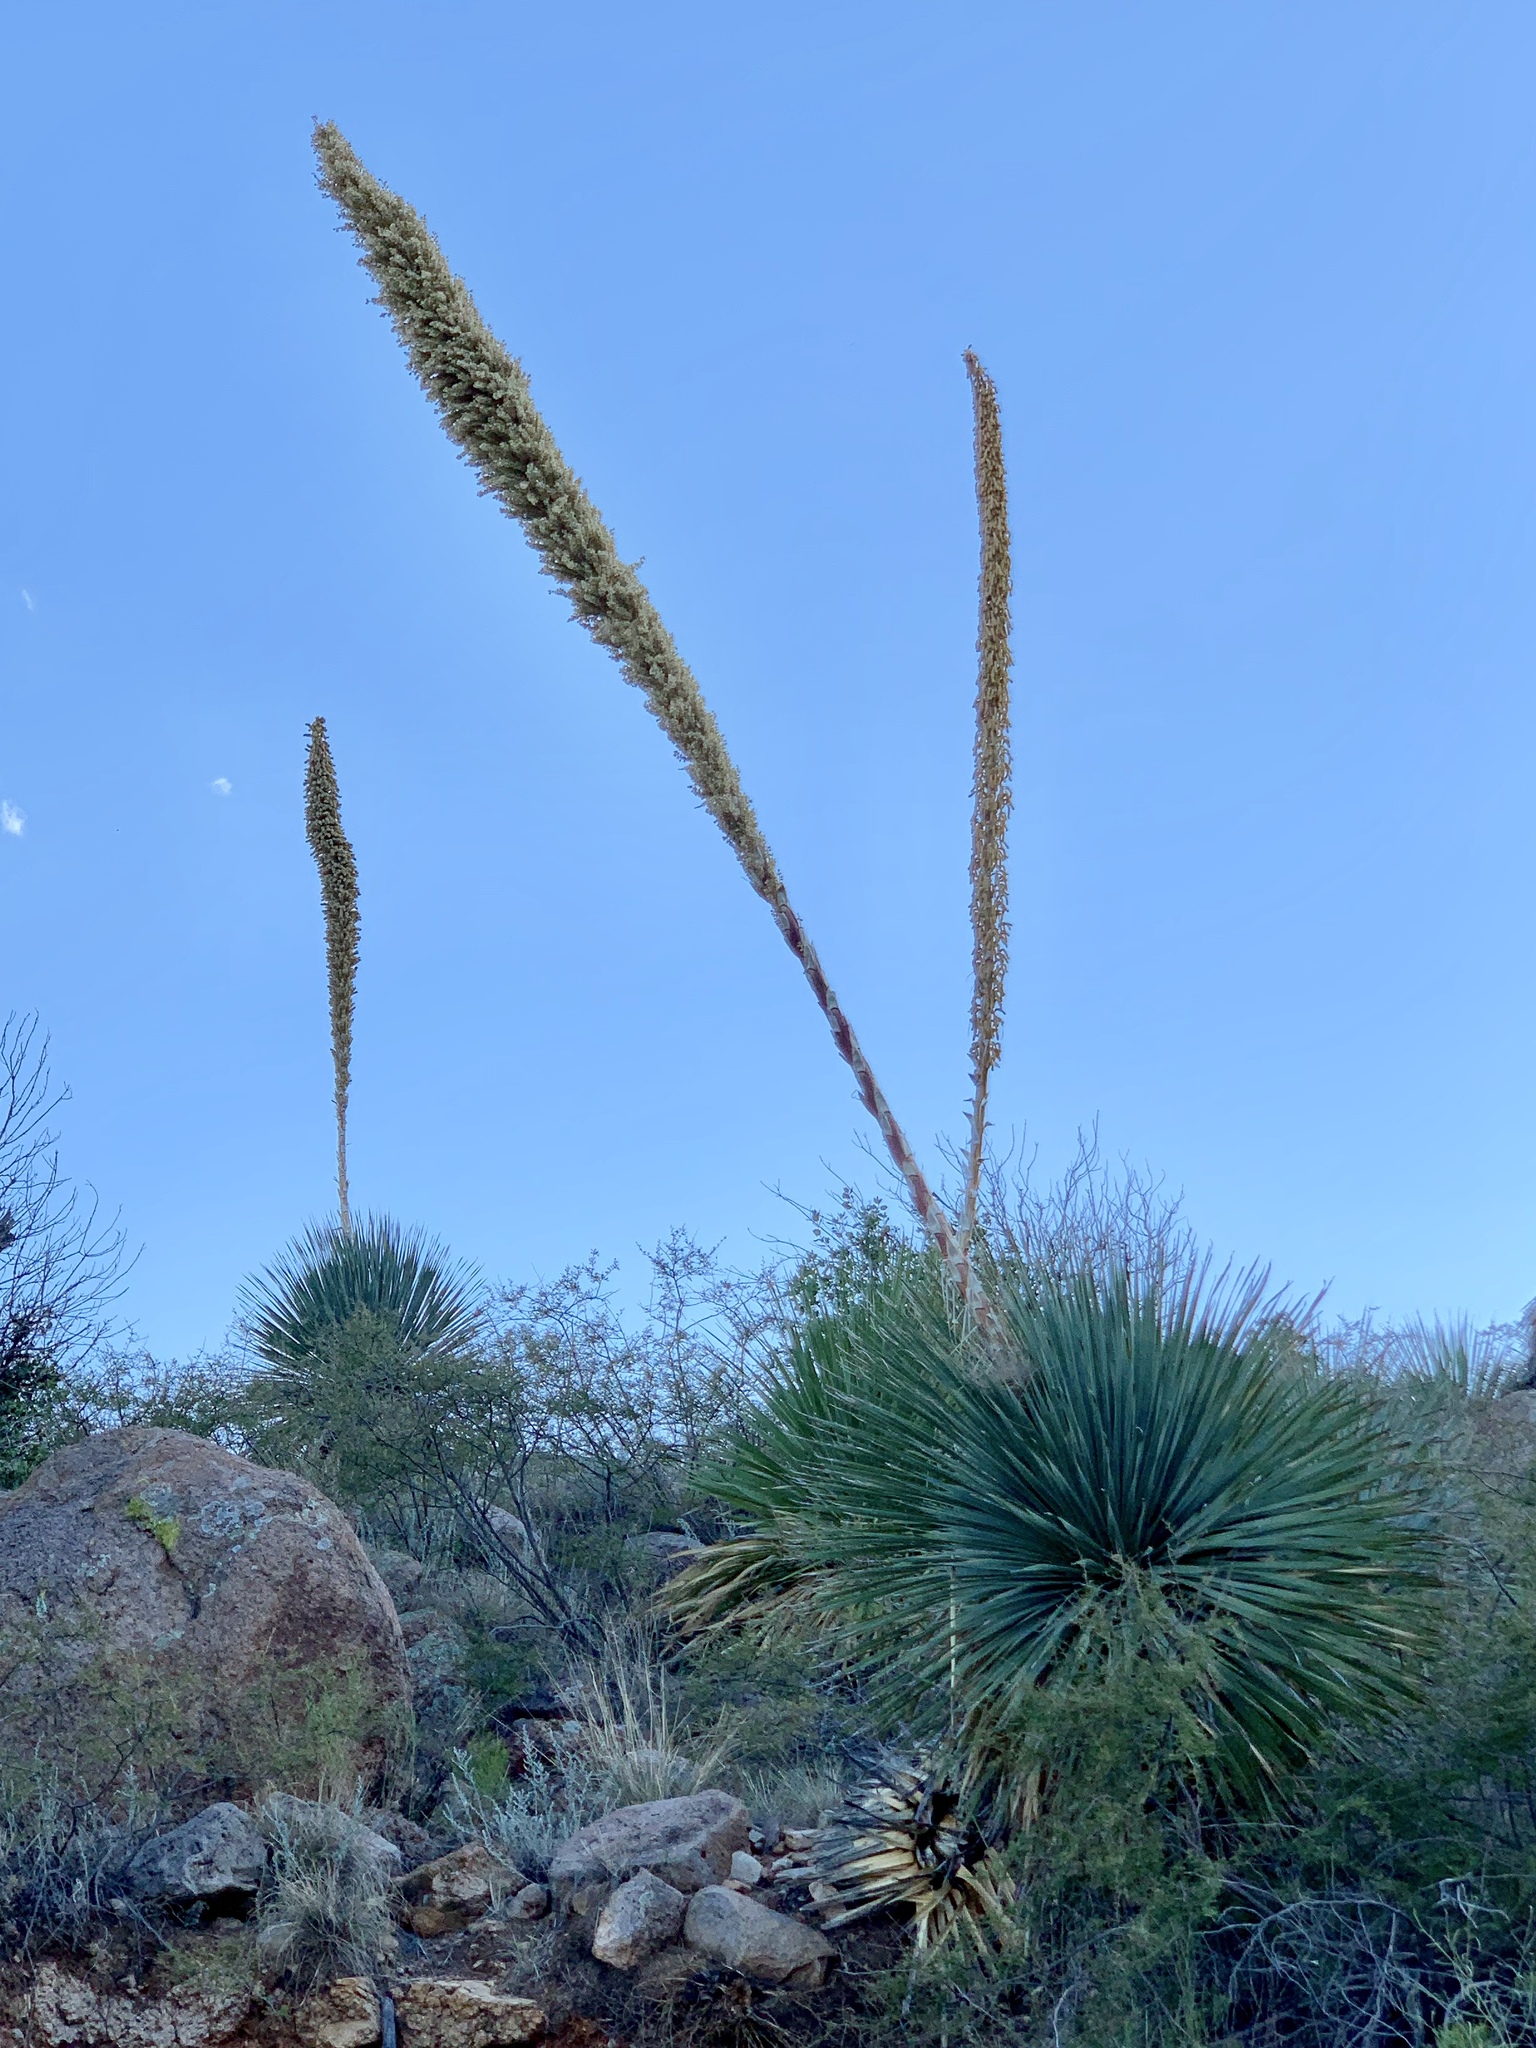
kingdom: Plantae
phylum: Tracheophyta
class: Liliopsida
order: Asparagales
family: Asparagaceae
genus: Dasylirion
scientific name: Dasylirion wheeleri
